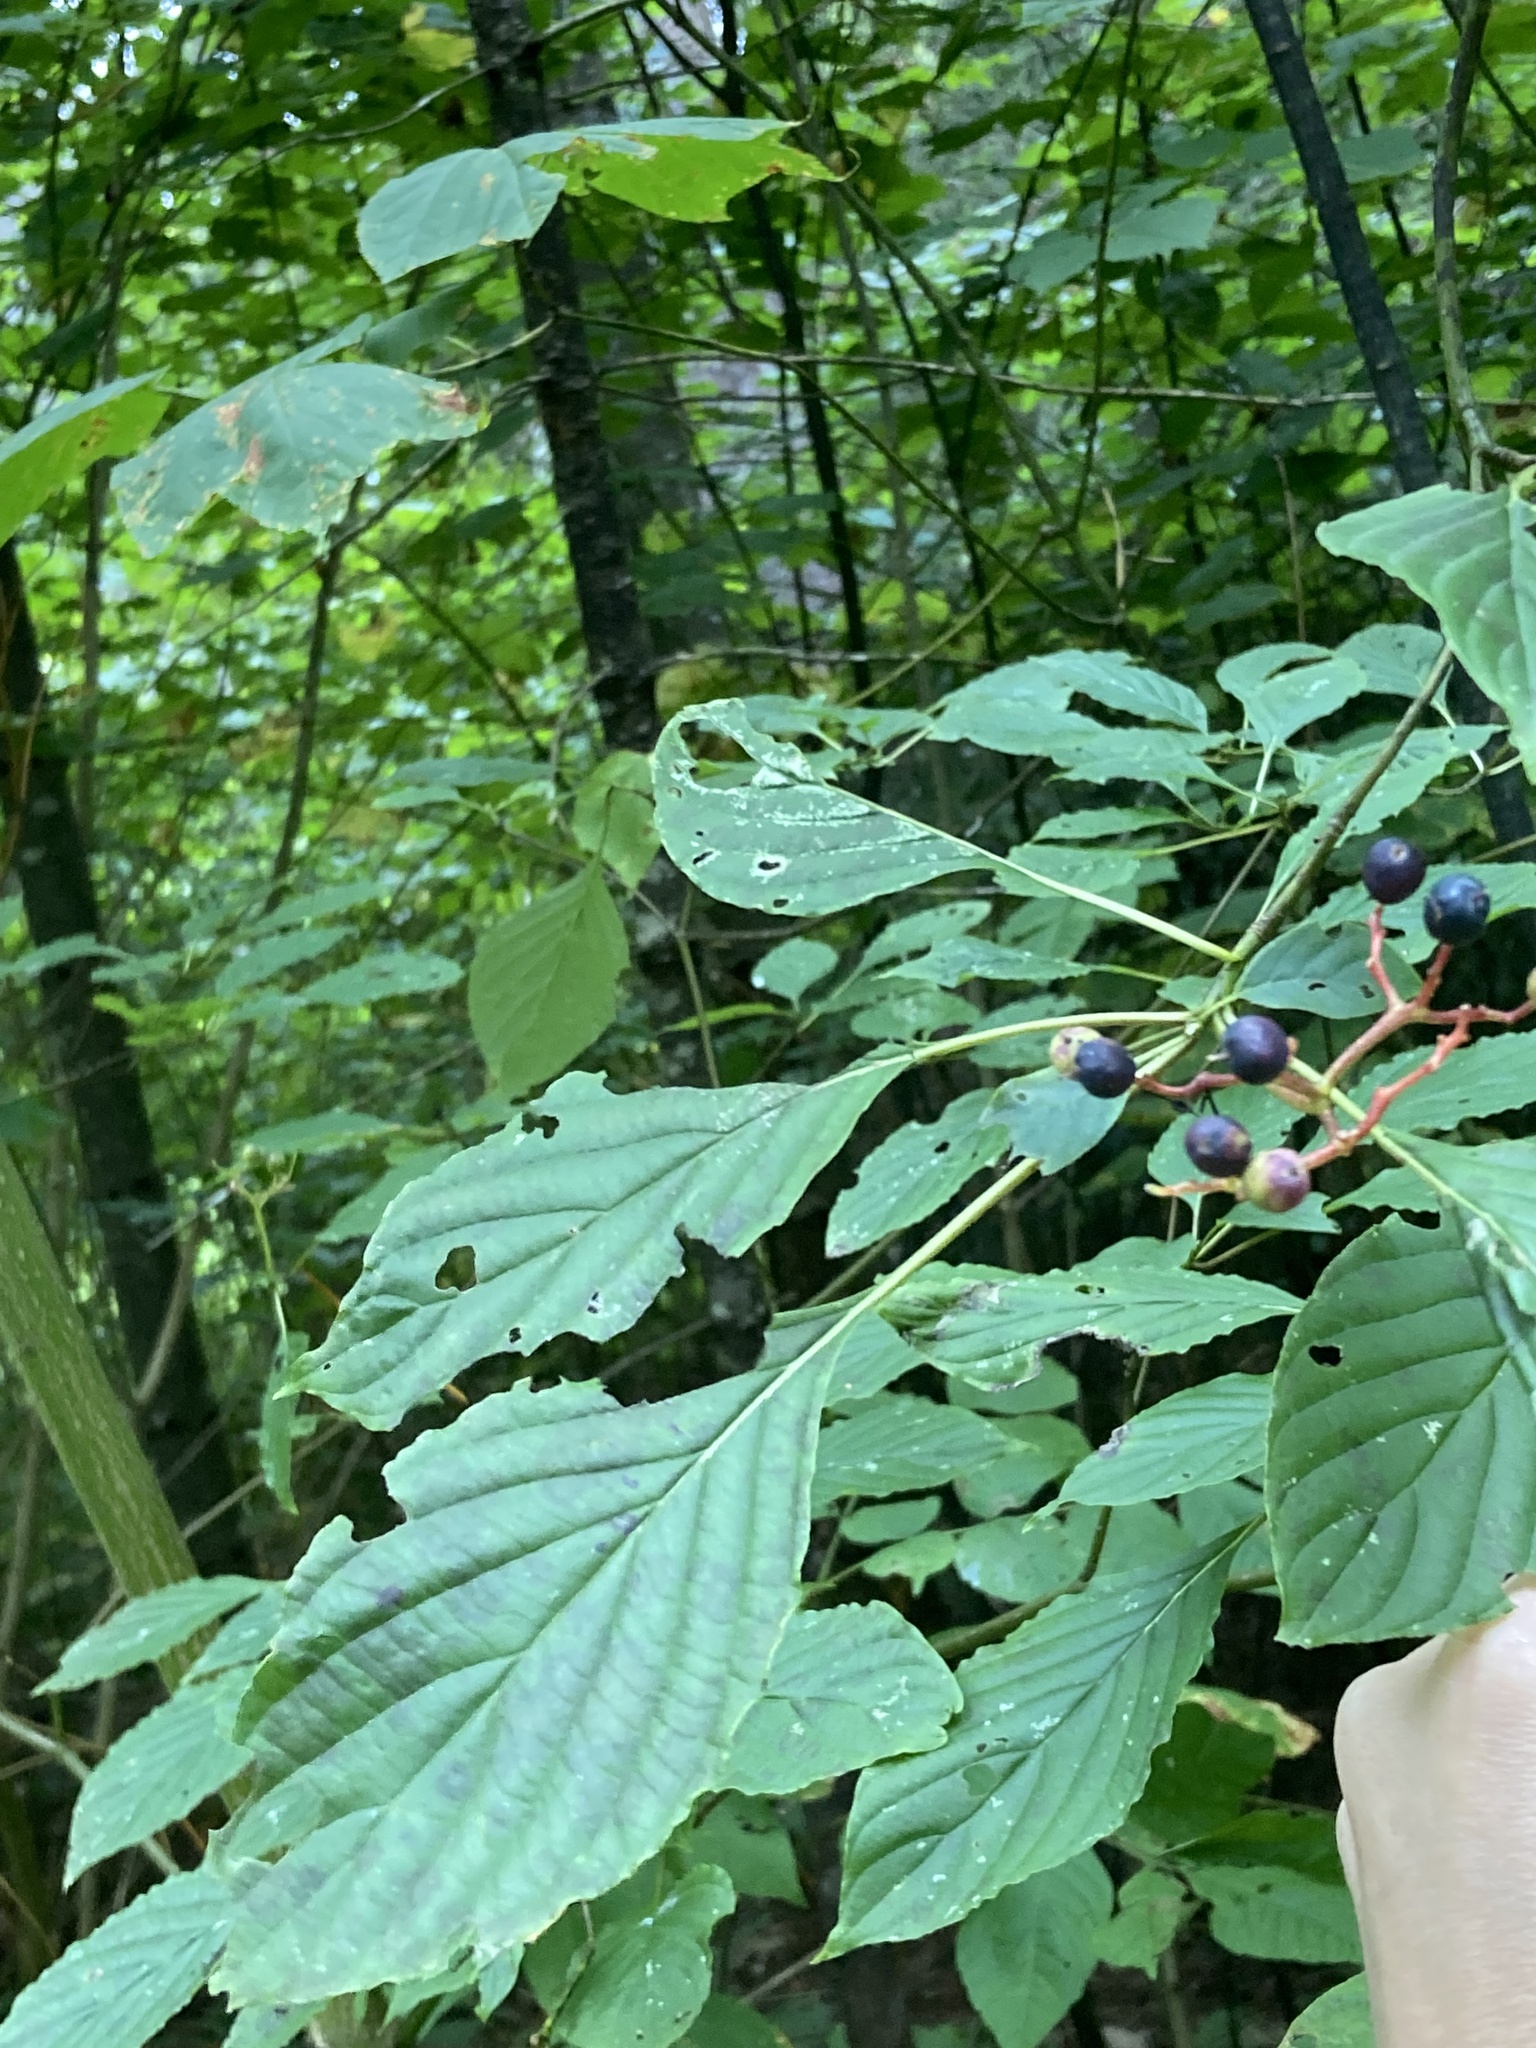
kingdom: Plantae
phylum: Tracheophyta
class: Magnoliopsida
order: Cornales
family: Cornaceae
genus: Cornus
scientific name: Cornus alternifolia
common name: Pagoda dogwood
